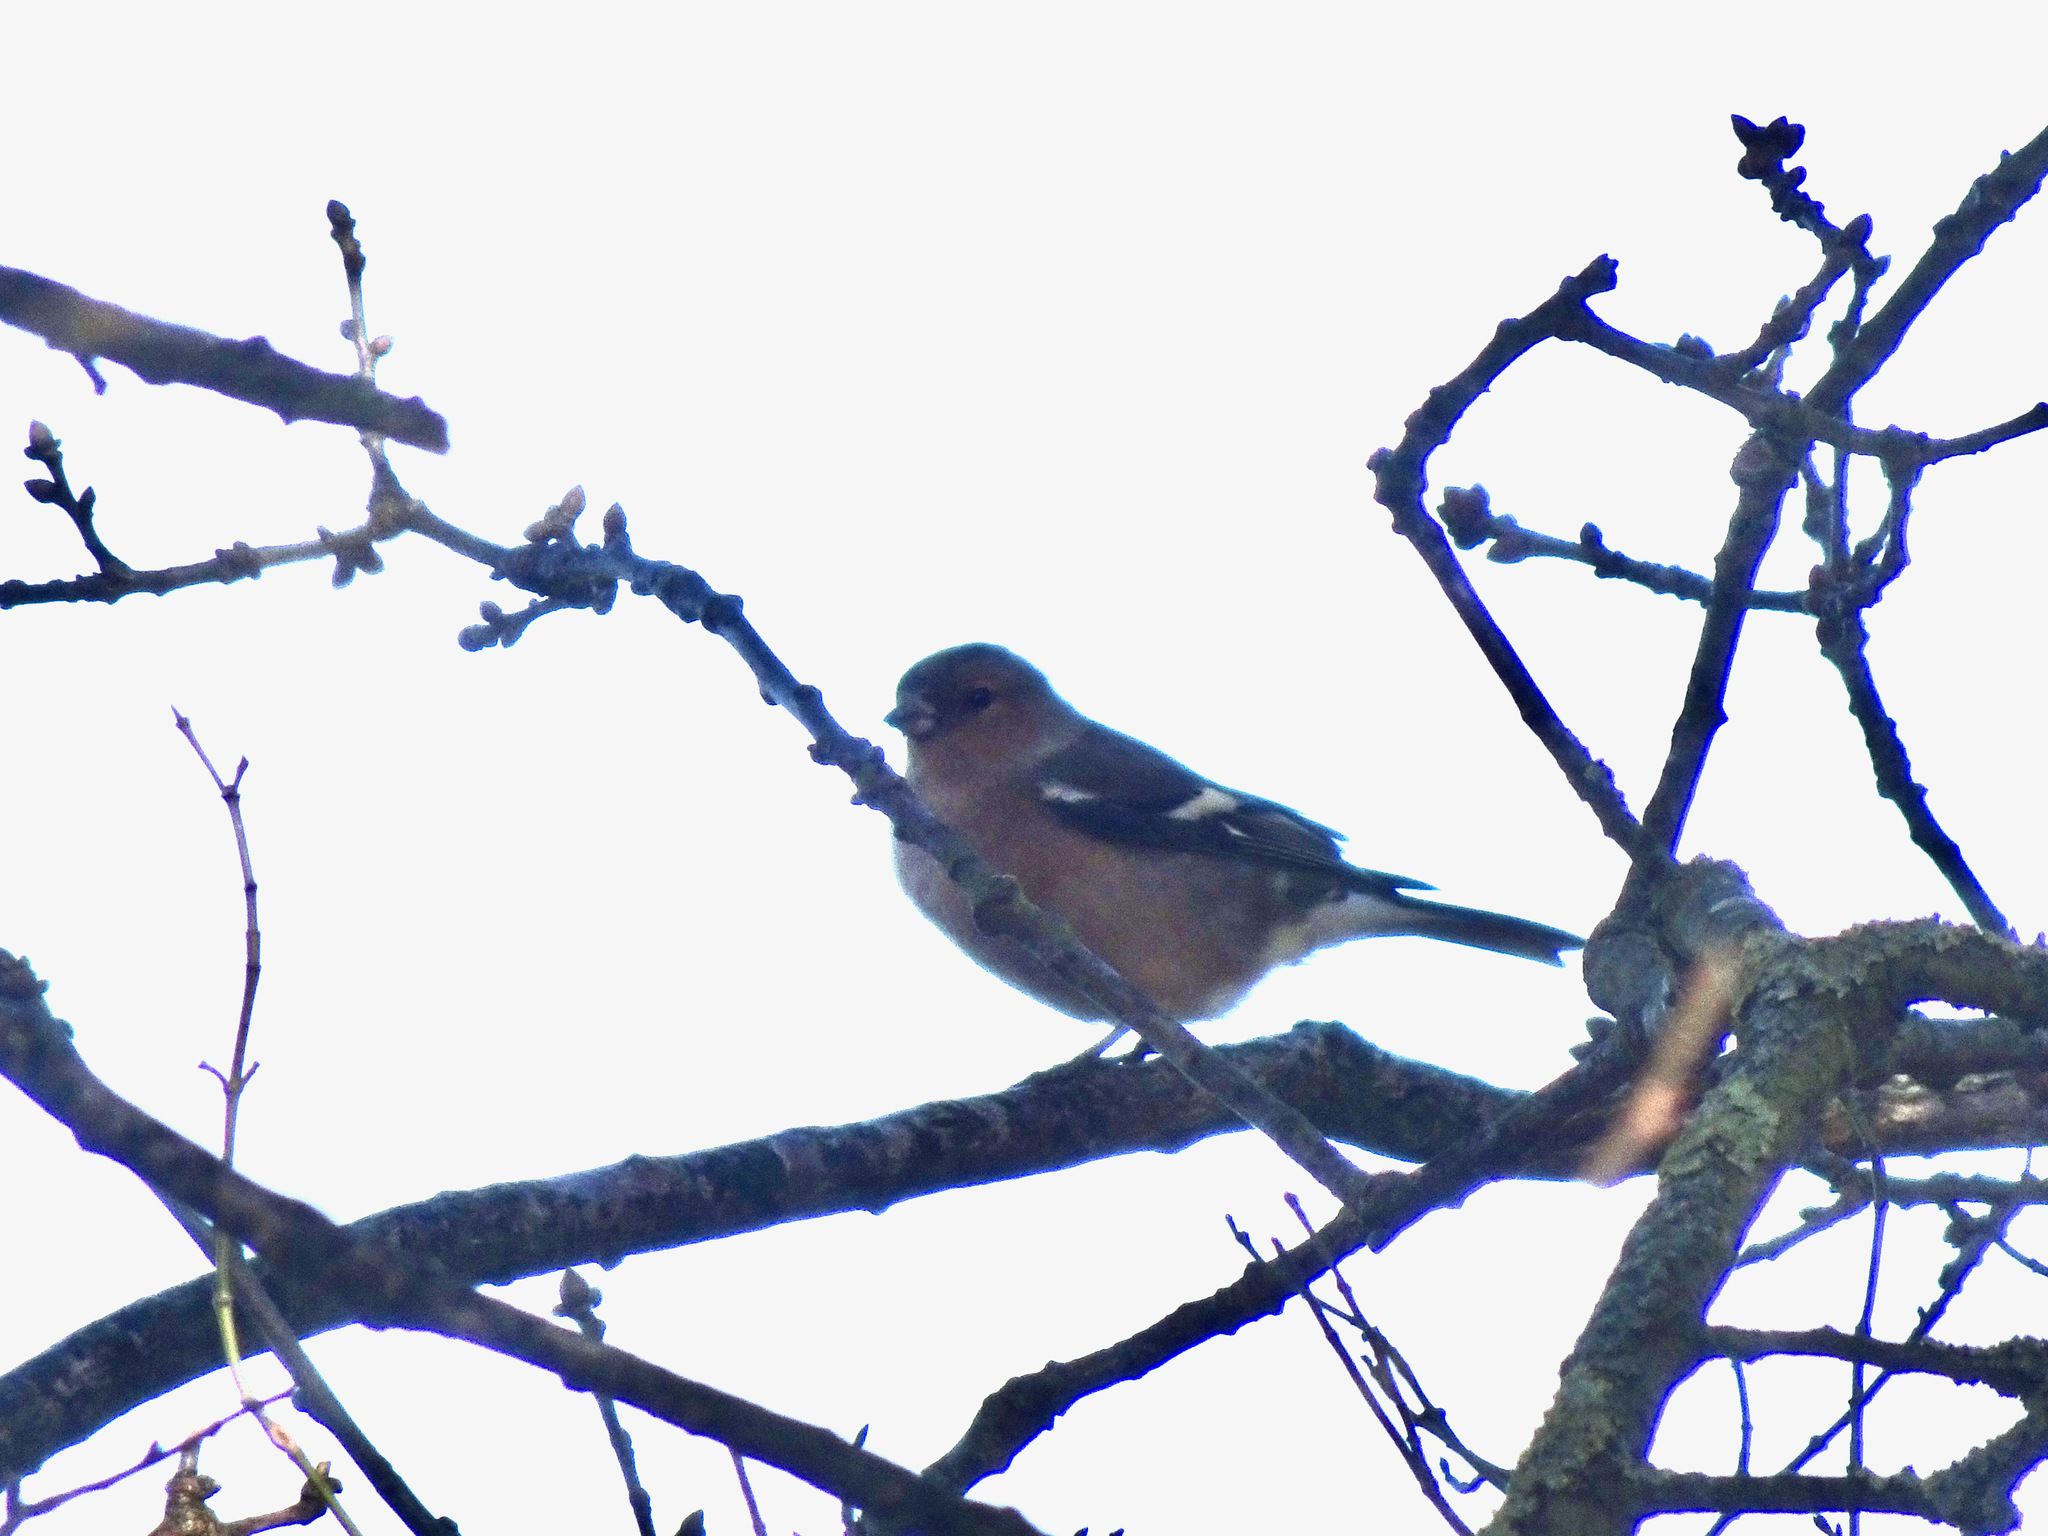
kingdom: Animalia
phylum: Chordata
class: Aves
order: Passeriformes
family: Fringillidae
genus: Fringilla
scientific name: Fringilla coelebs
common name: Common chaffinch
